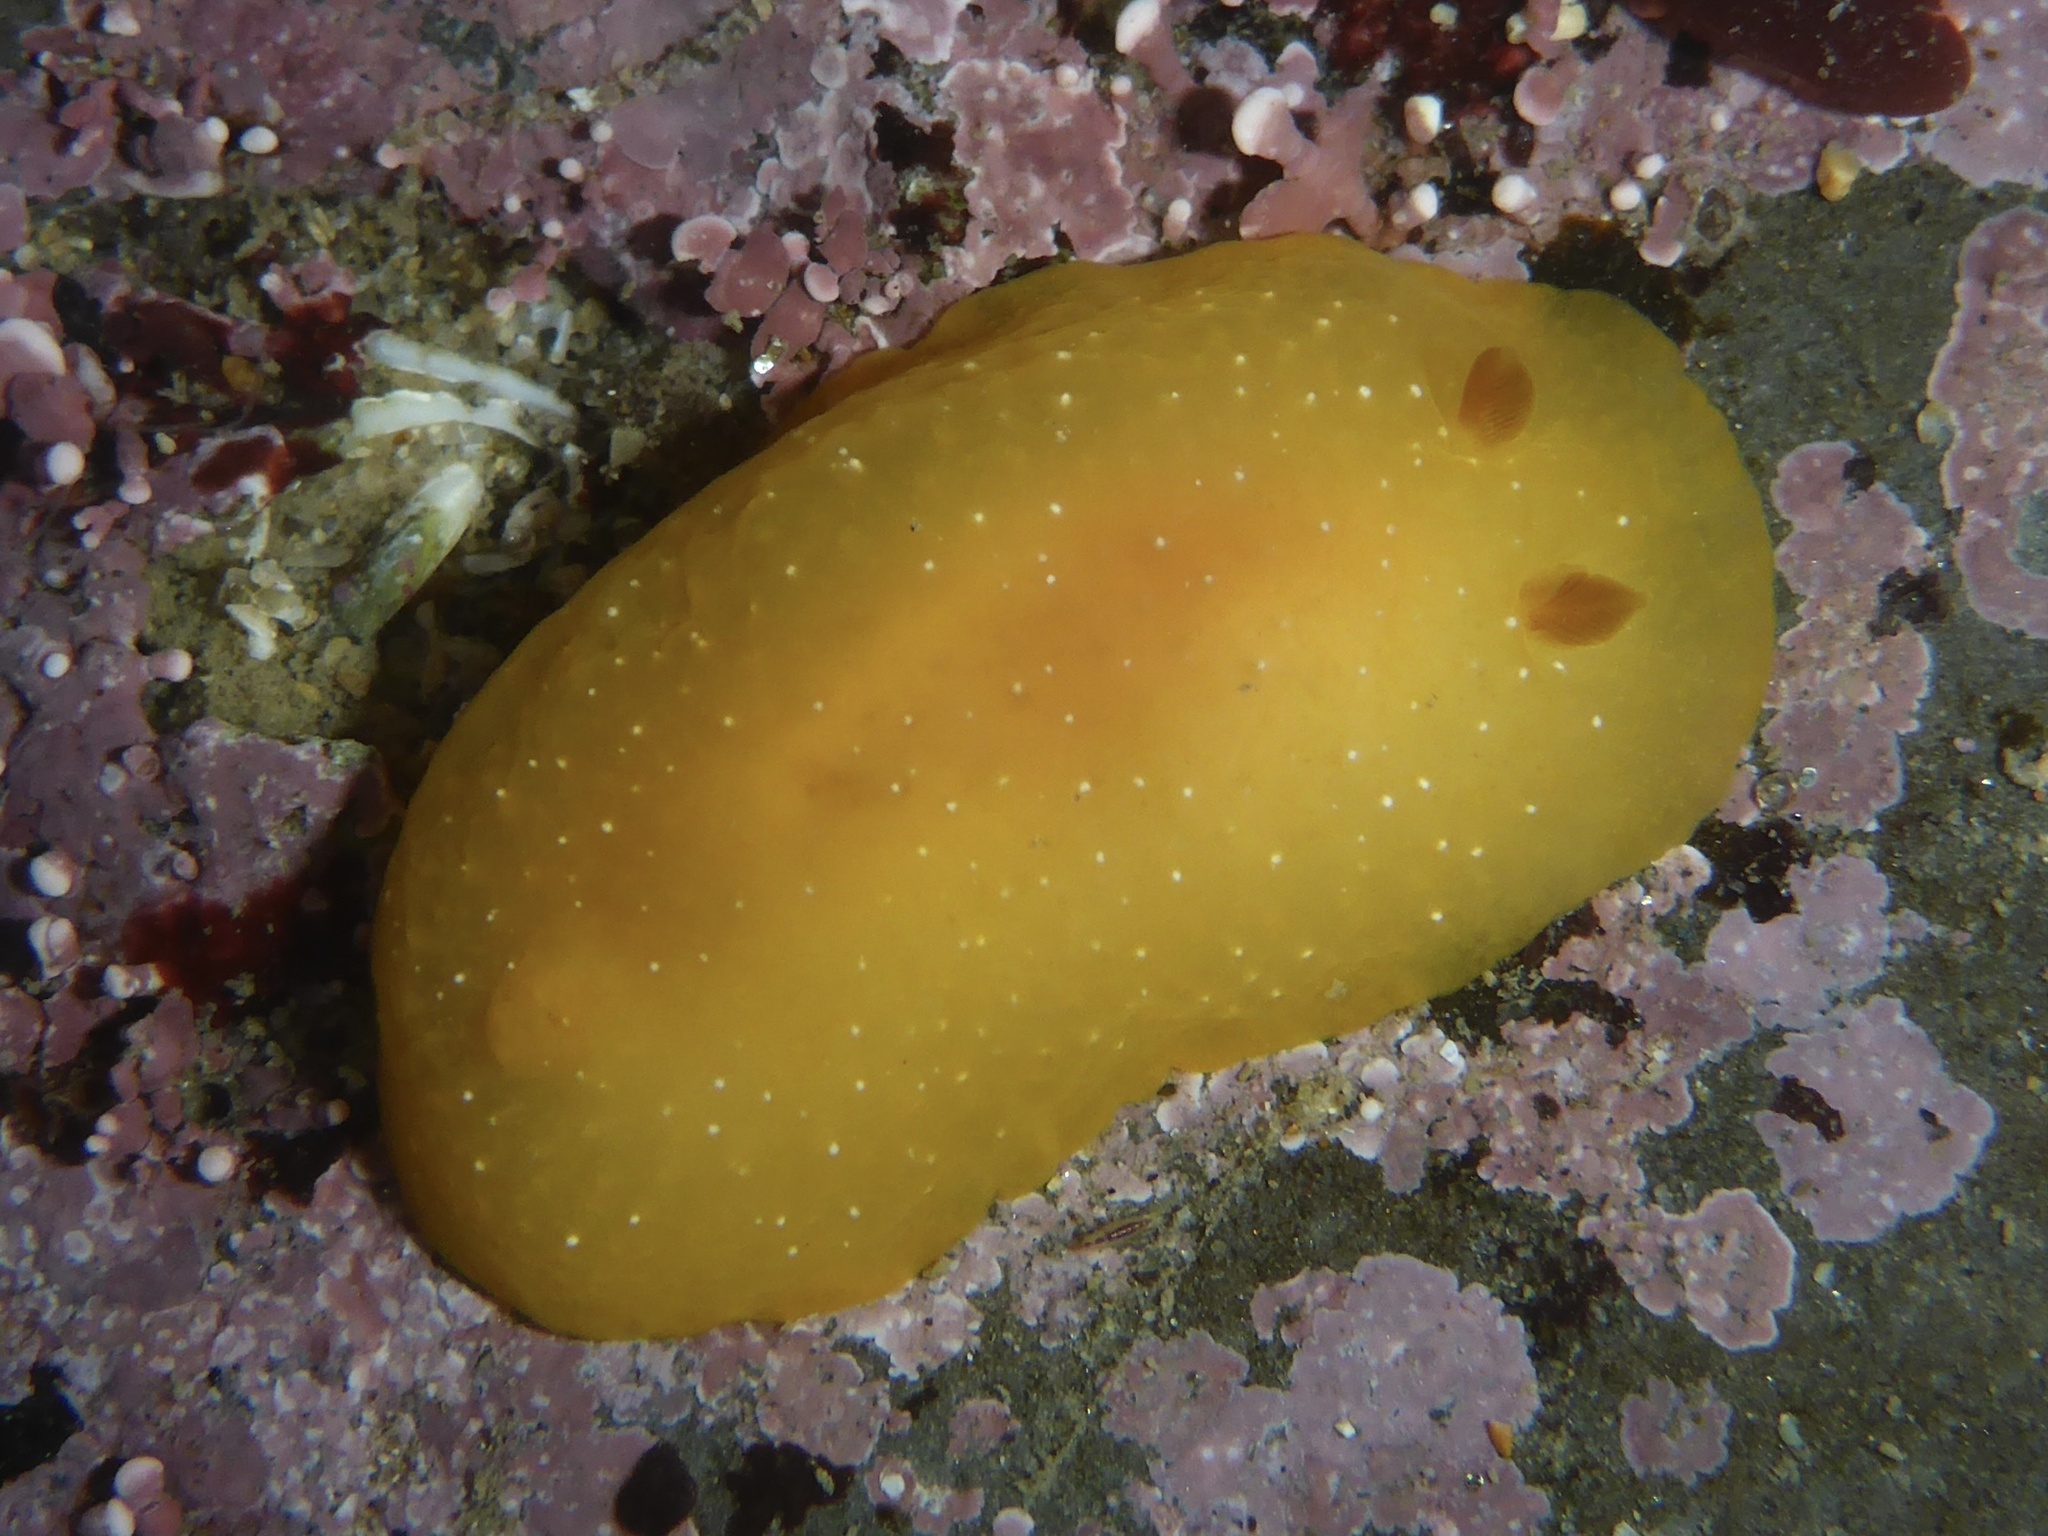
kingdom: Animalia
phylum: Mollusca
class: Gastropoda
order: Nudibranchia
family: Dendrodorididae
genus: Doriopsilla
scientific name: Doriopsilla fulva
